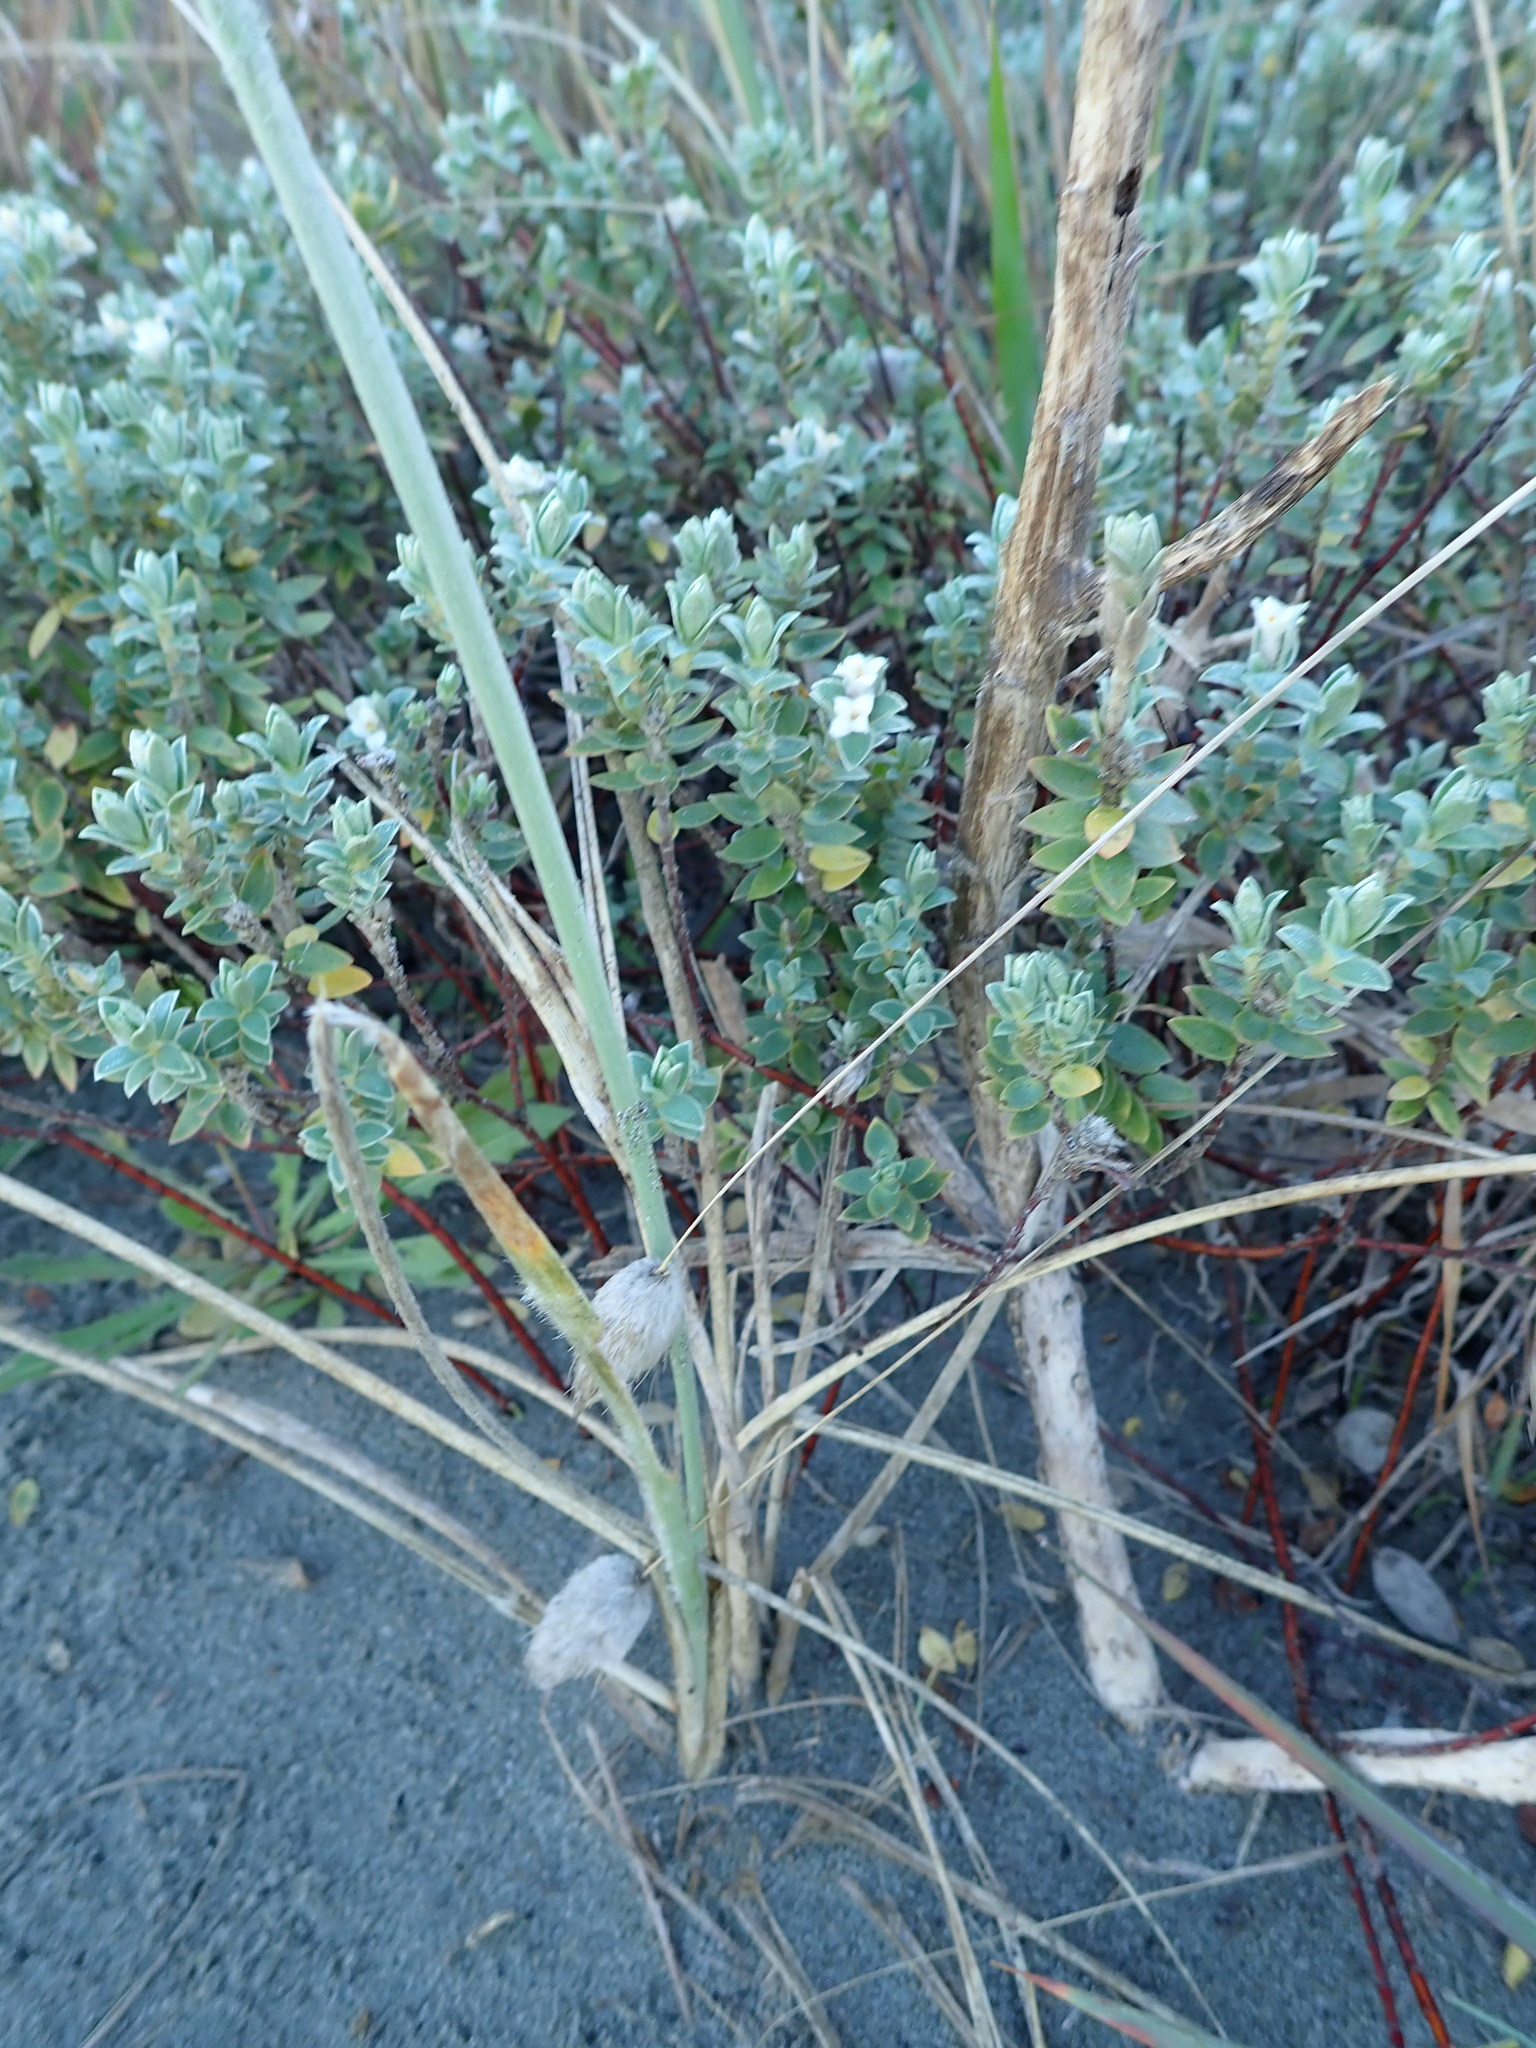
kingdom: Plantae
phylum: Tracheophyta
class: Magnoliopsida
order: Malvales
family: Thymelaeaceae
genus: Pimelea
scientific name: Pimelea villosa
